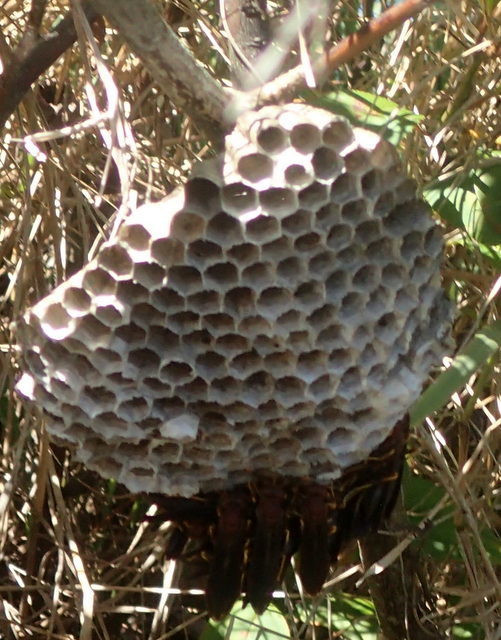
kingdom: Animalia
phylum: Arthropoda
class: Insecta
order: Hymenoptera
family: Eumenidae
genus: Polistes
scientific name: Polistes annularis
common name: Ringed paper wasp
